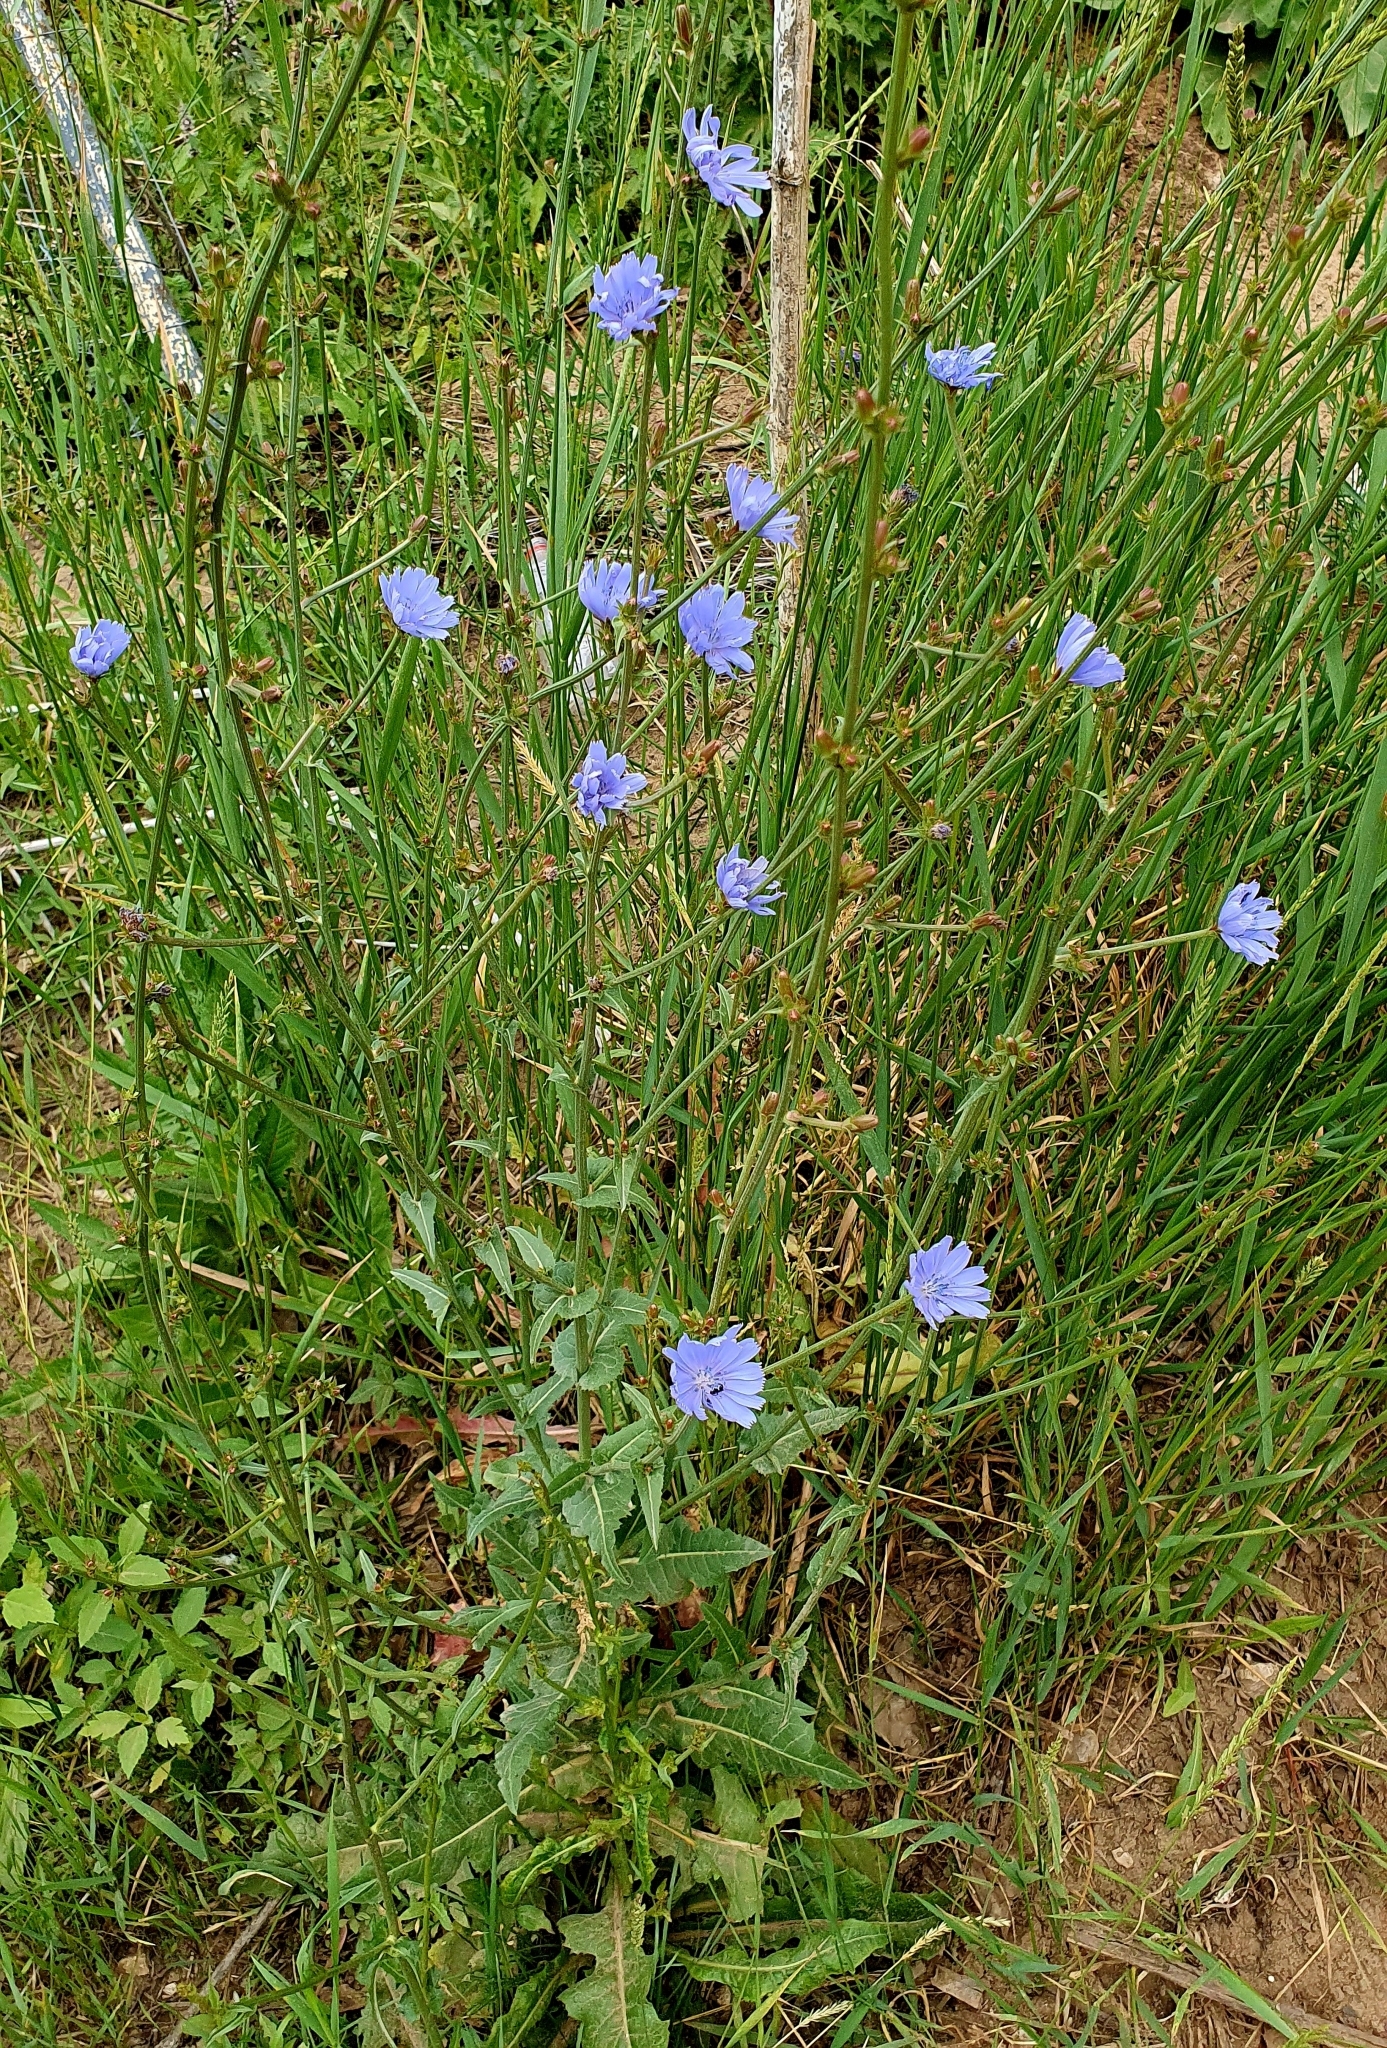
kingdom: Plantae
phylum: Tracheophyta
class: Magnoliopsida
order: Asterales
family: Asteraceae
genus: Cichorium
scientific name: Cichorium intybus
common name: Chicory
